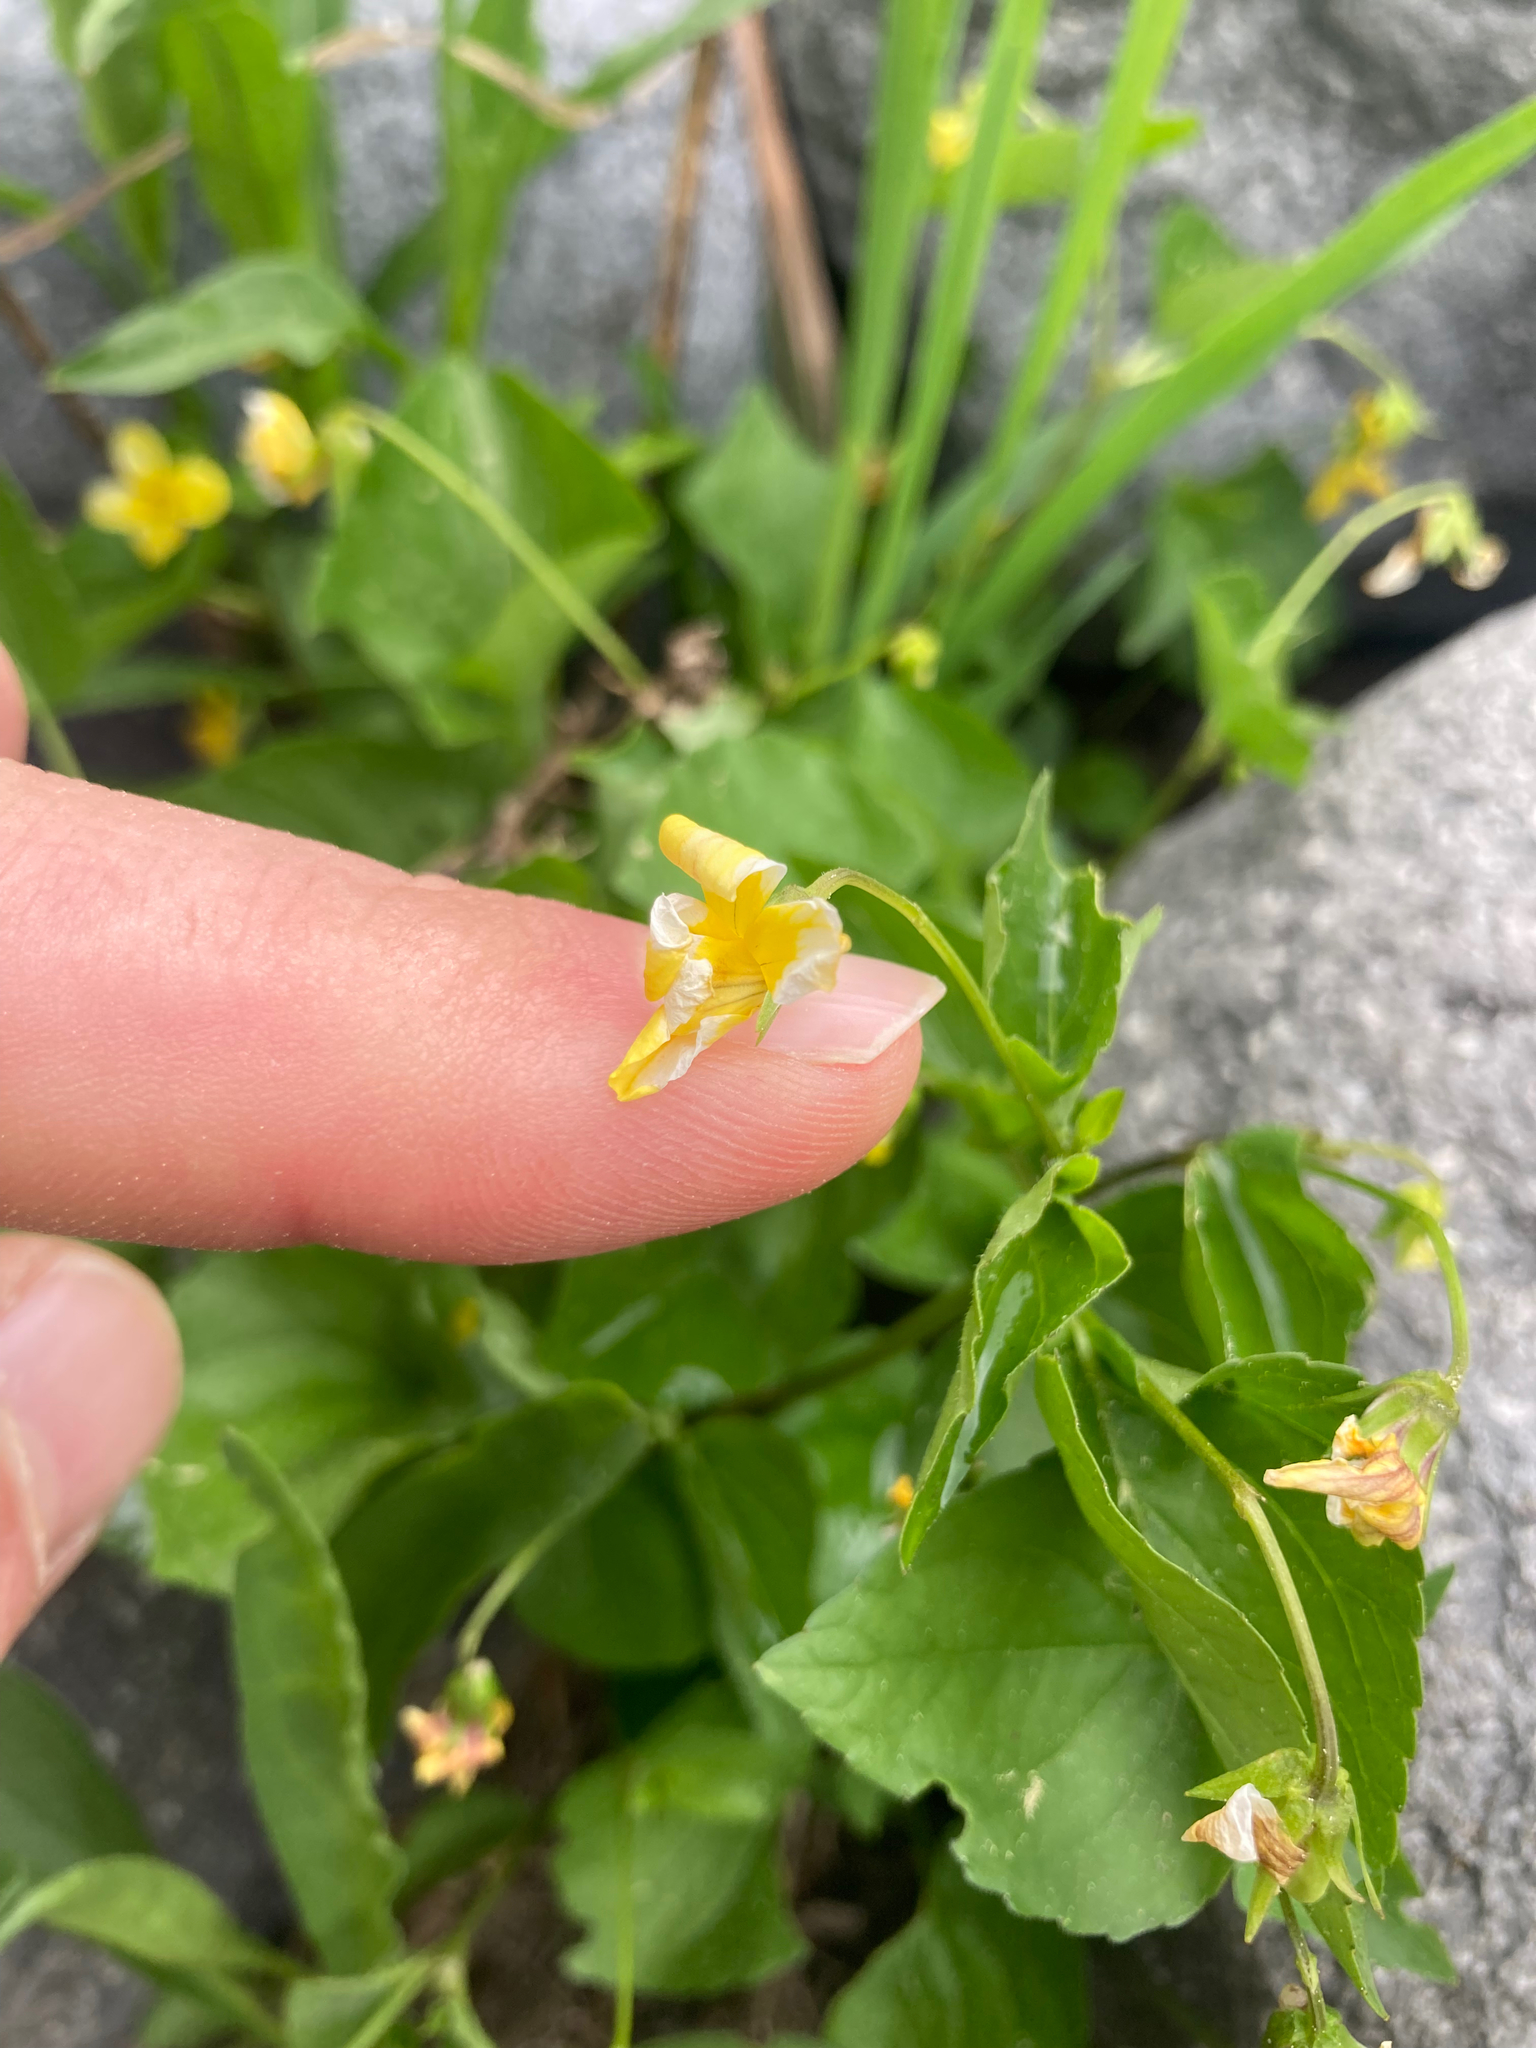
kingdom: Plantae
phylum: Tracheophyta
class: Magnoliopsida
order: Malpighiales
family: Violaceae
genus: Viola
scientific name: Viola glabella
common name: Stream violet
